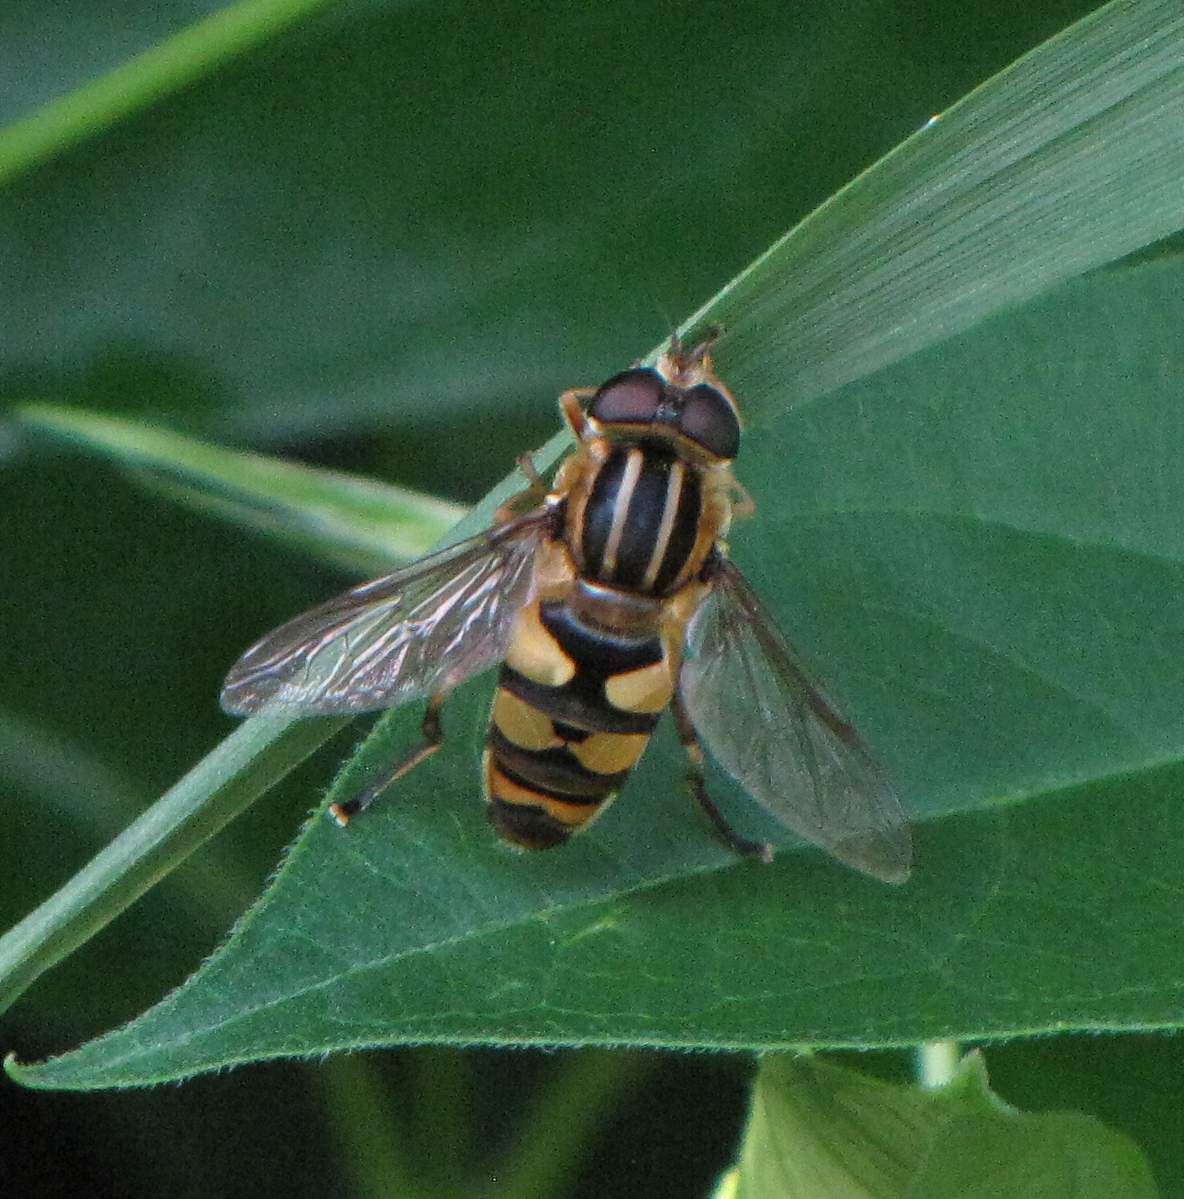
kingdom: Animalia
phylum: Arthropoda
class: Insecta
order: Diptera
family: Syrphidae
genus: Helophilus
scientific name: Helophilus fasciatus
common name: Narrow-headed marsh fly
